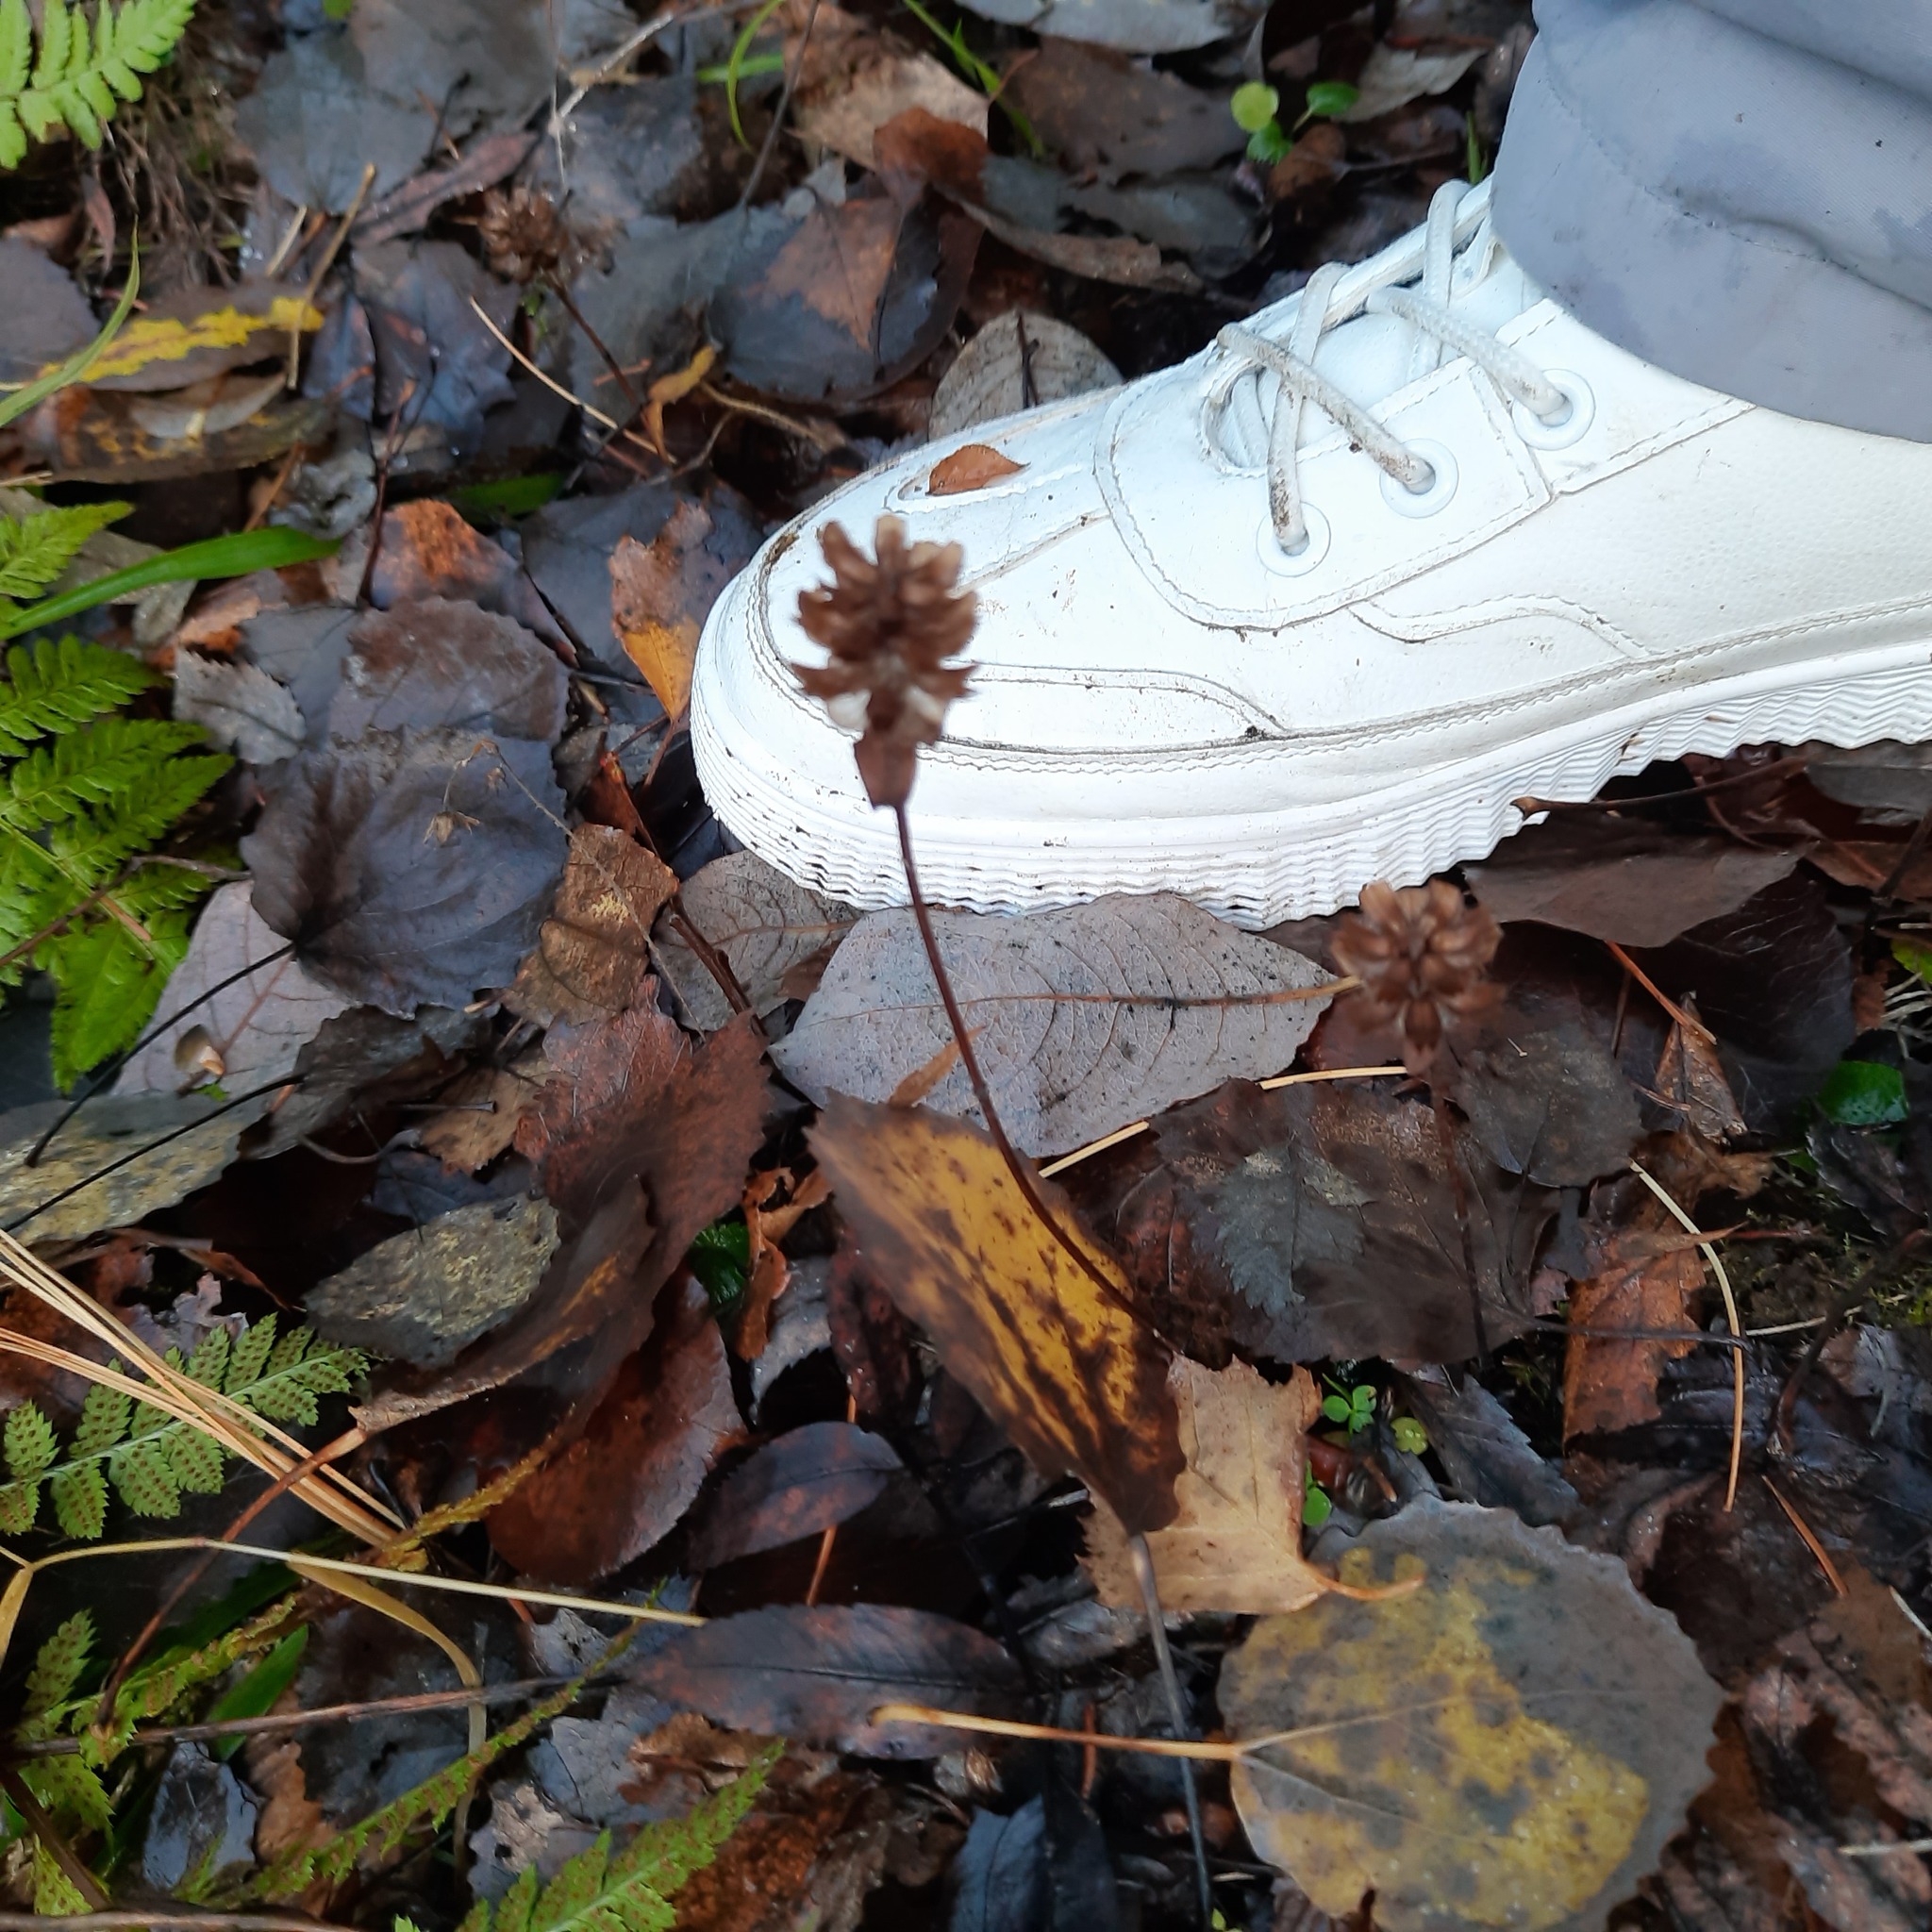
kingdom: Plantae
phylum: Tracheophyta
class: Magnoliopsida
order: Lamiales
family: Lamiaceae
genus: Prunella
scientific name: Prunella vulgaris
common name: Heal-all
